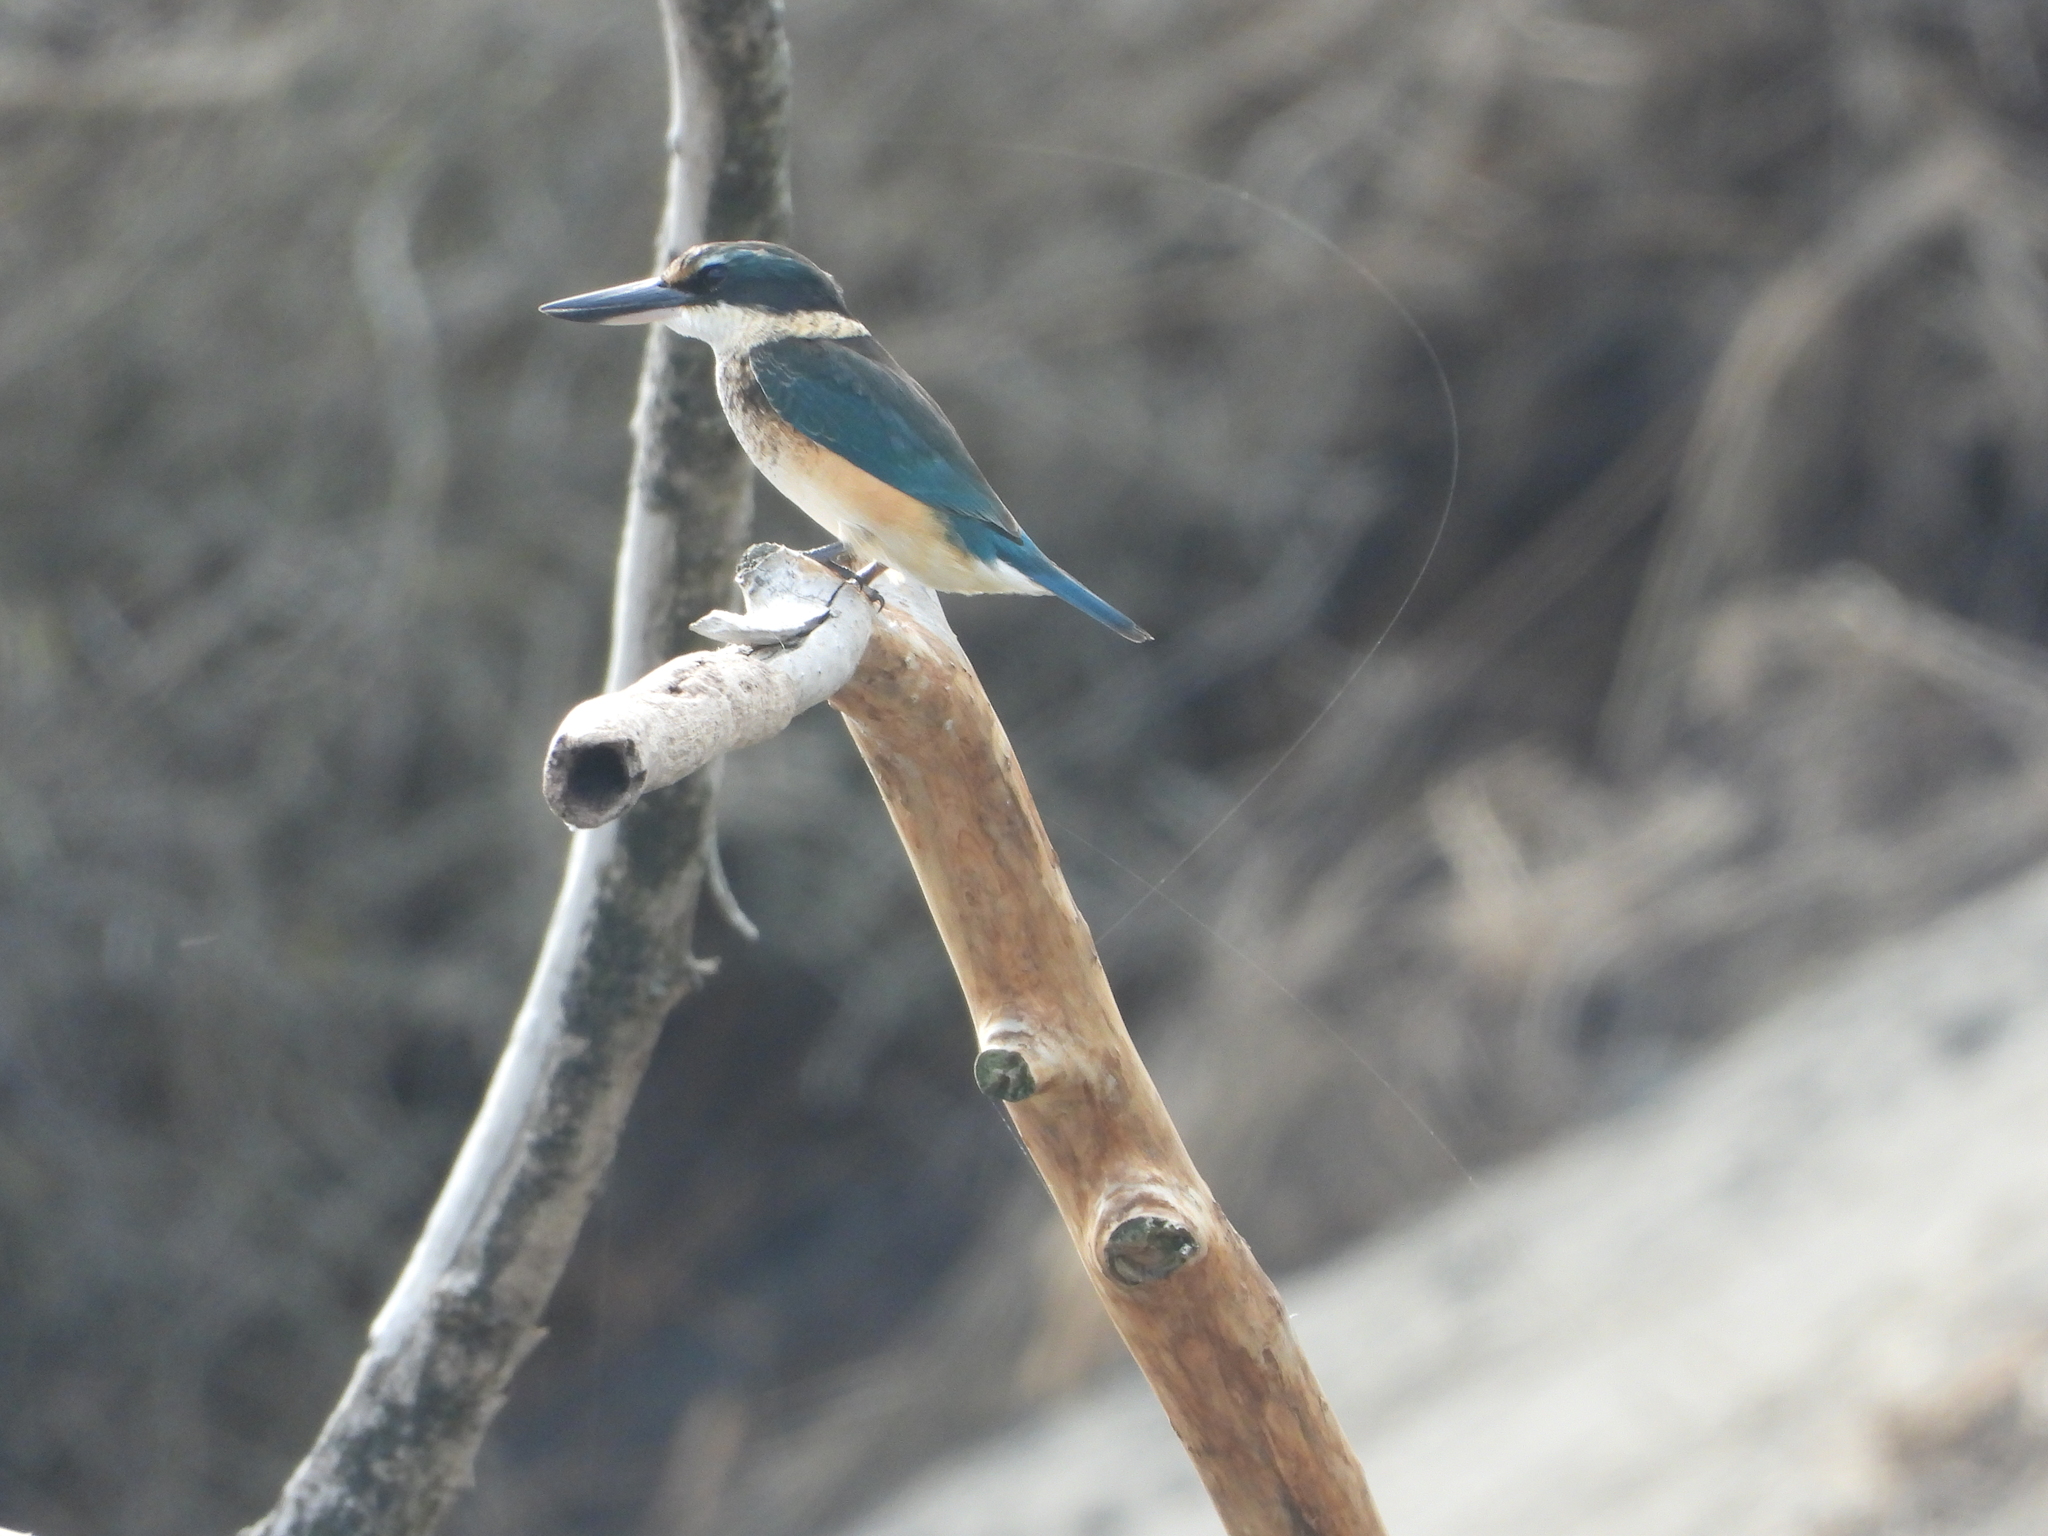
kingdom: Animalia
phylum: Chordata
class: Aves
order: Coraciiformes
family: Alcedinidae
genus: Todiramphus
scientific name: Todiramphus sanctus
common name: Sacred kingfisher
